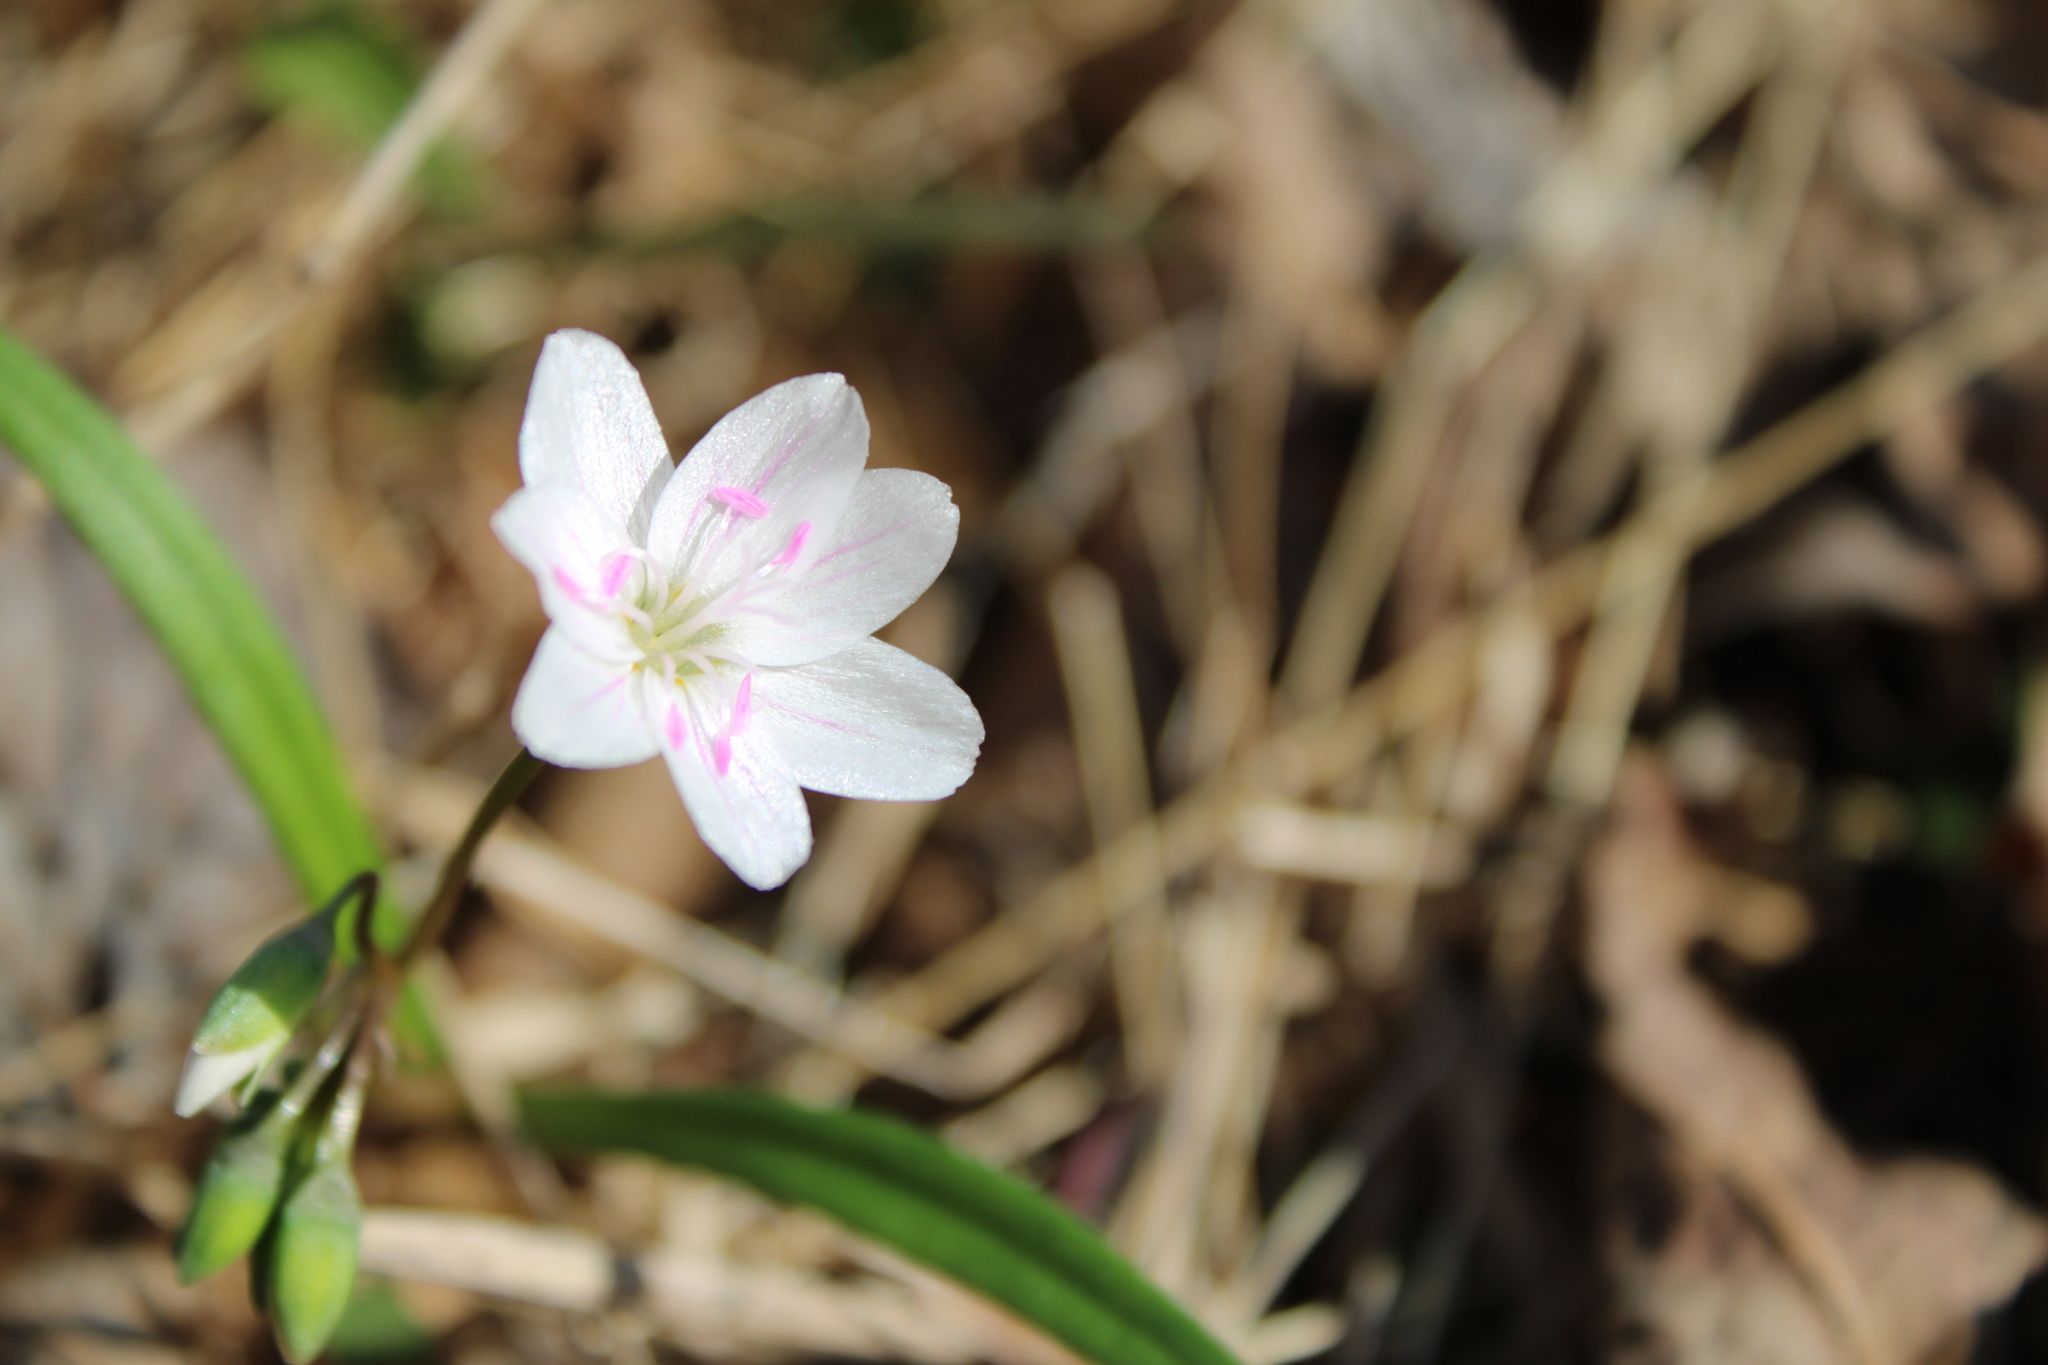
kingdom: Plantae
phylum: Tracheophyta
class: Magnoliopsida
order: Caryophyllales
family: Montiaceae
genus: Claytonia
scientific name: Claytonia virginica
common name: Virginia springbeauty
